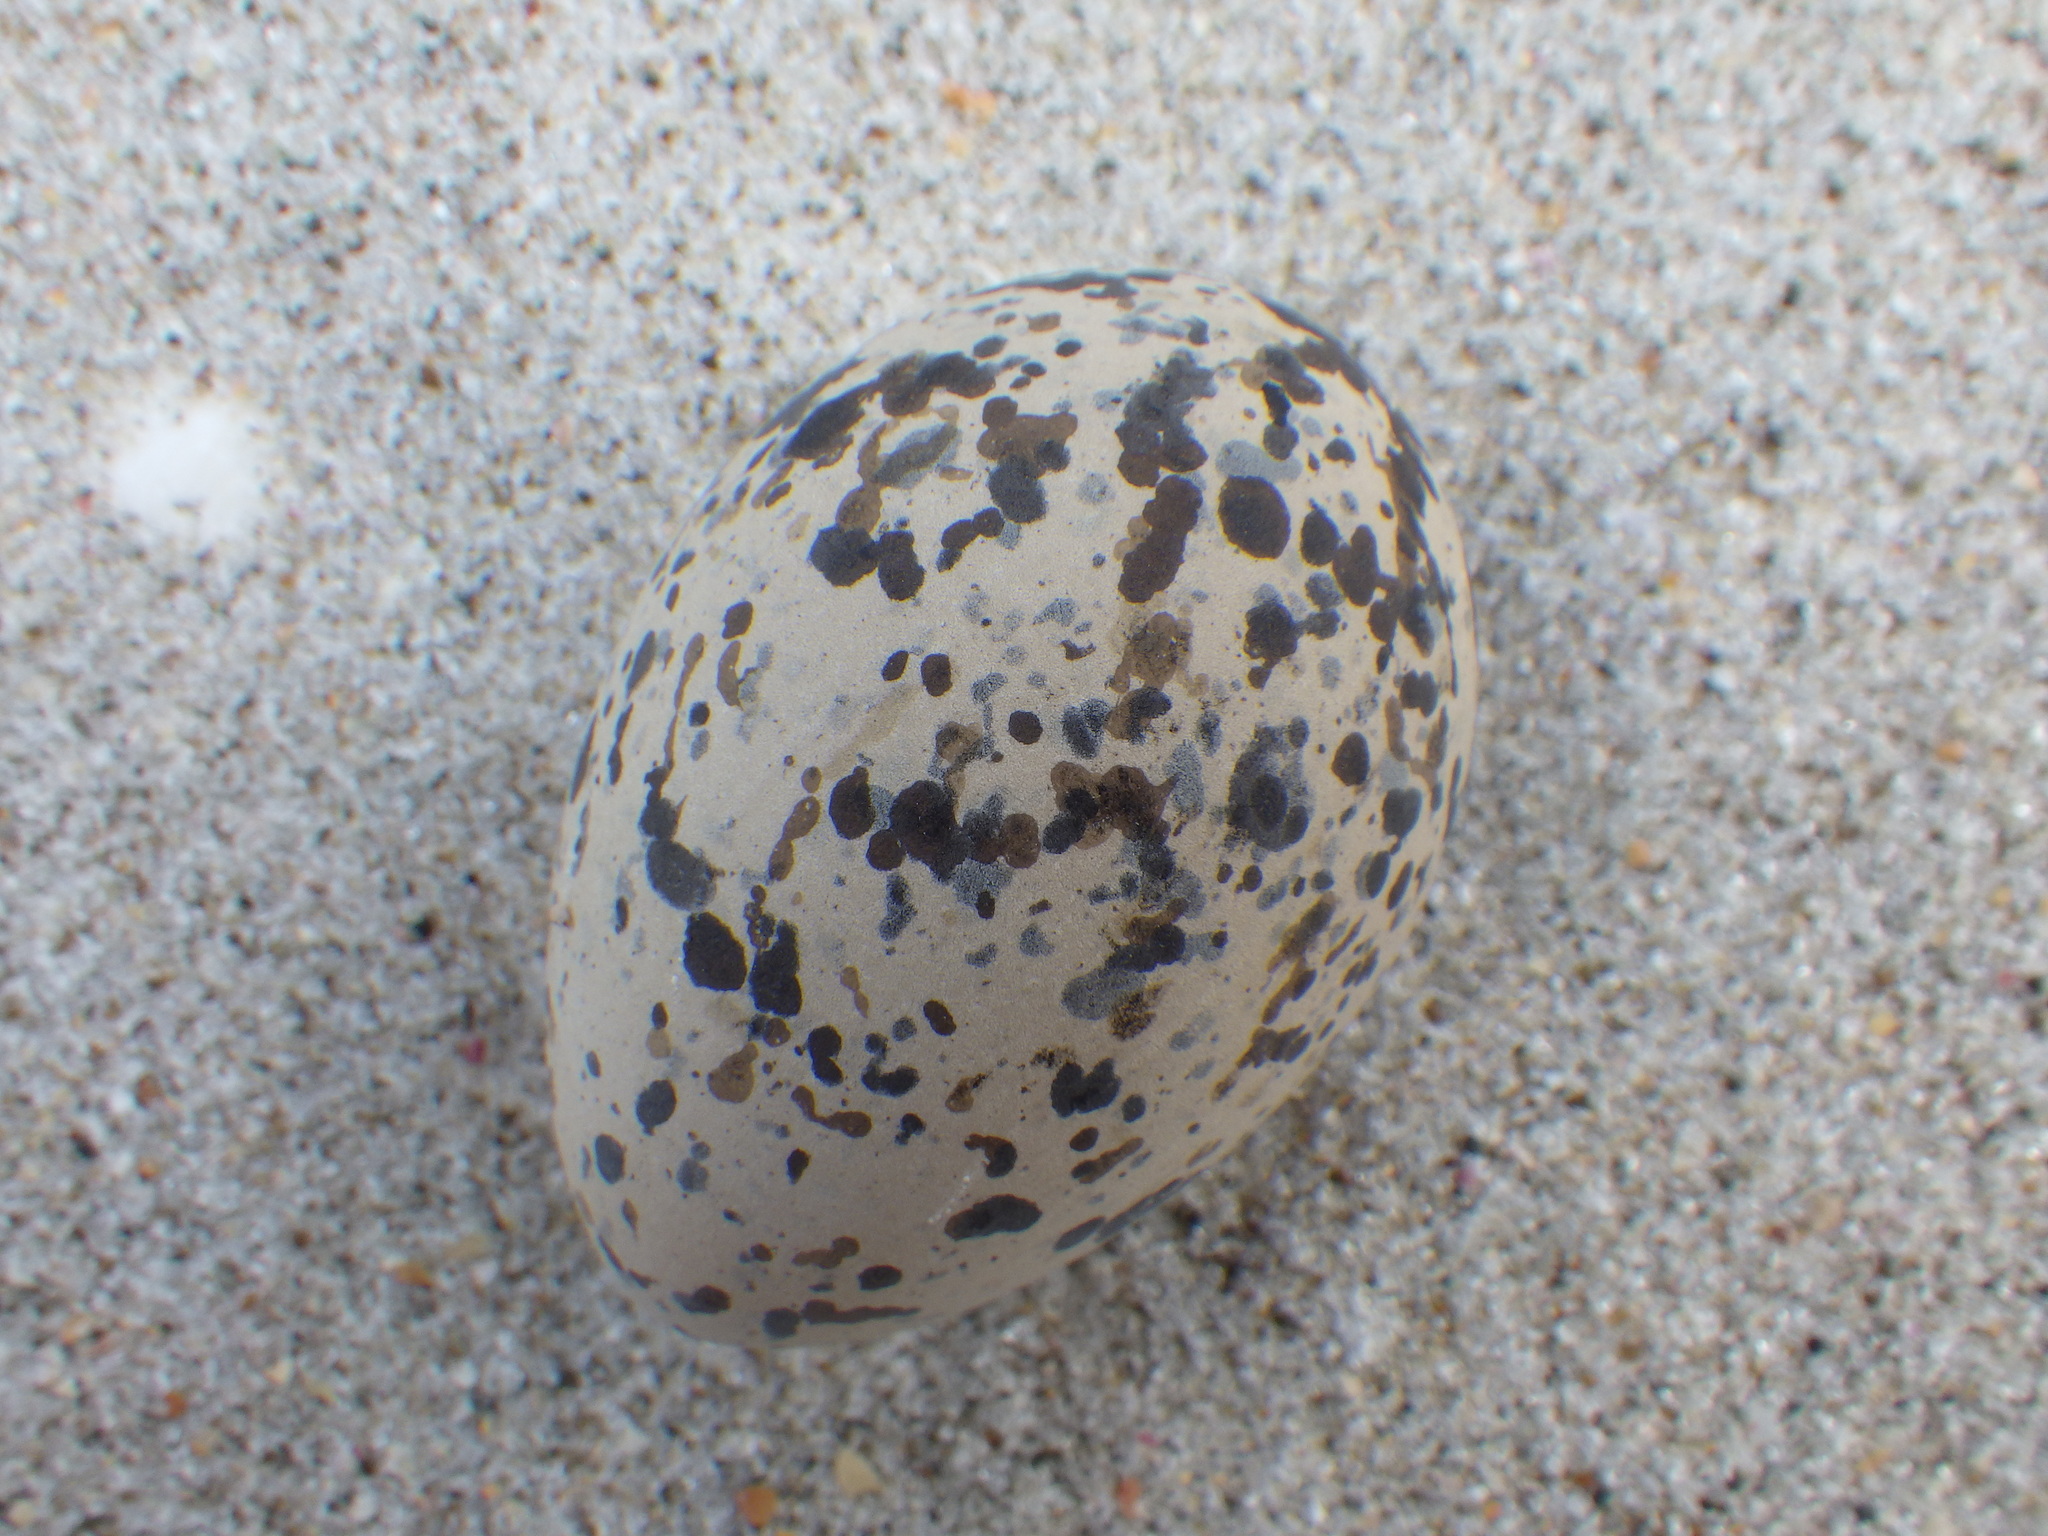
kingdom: Animalia
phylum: Chordata
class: Aves
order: Charadriiformes
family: Haematopodidae
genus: Haematopus
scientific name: Haematopus unicolor
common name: Variable oystercatcher
